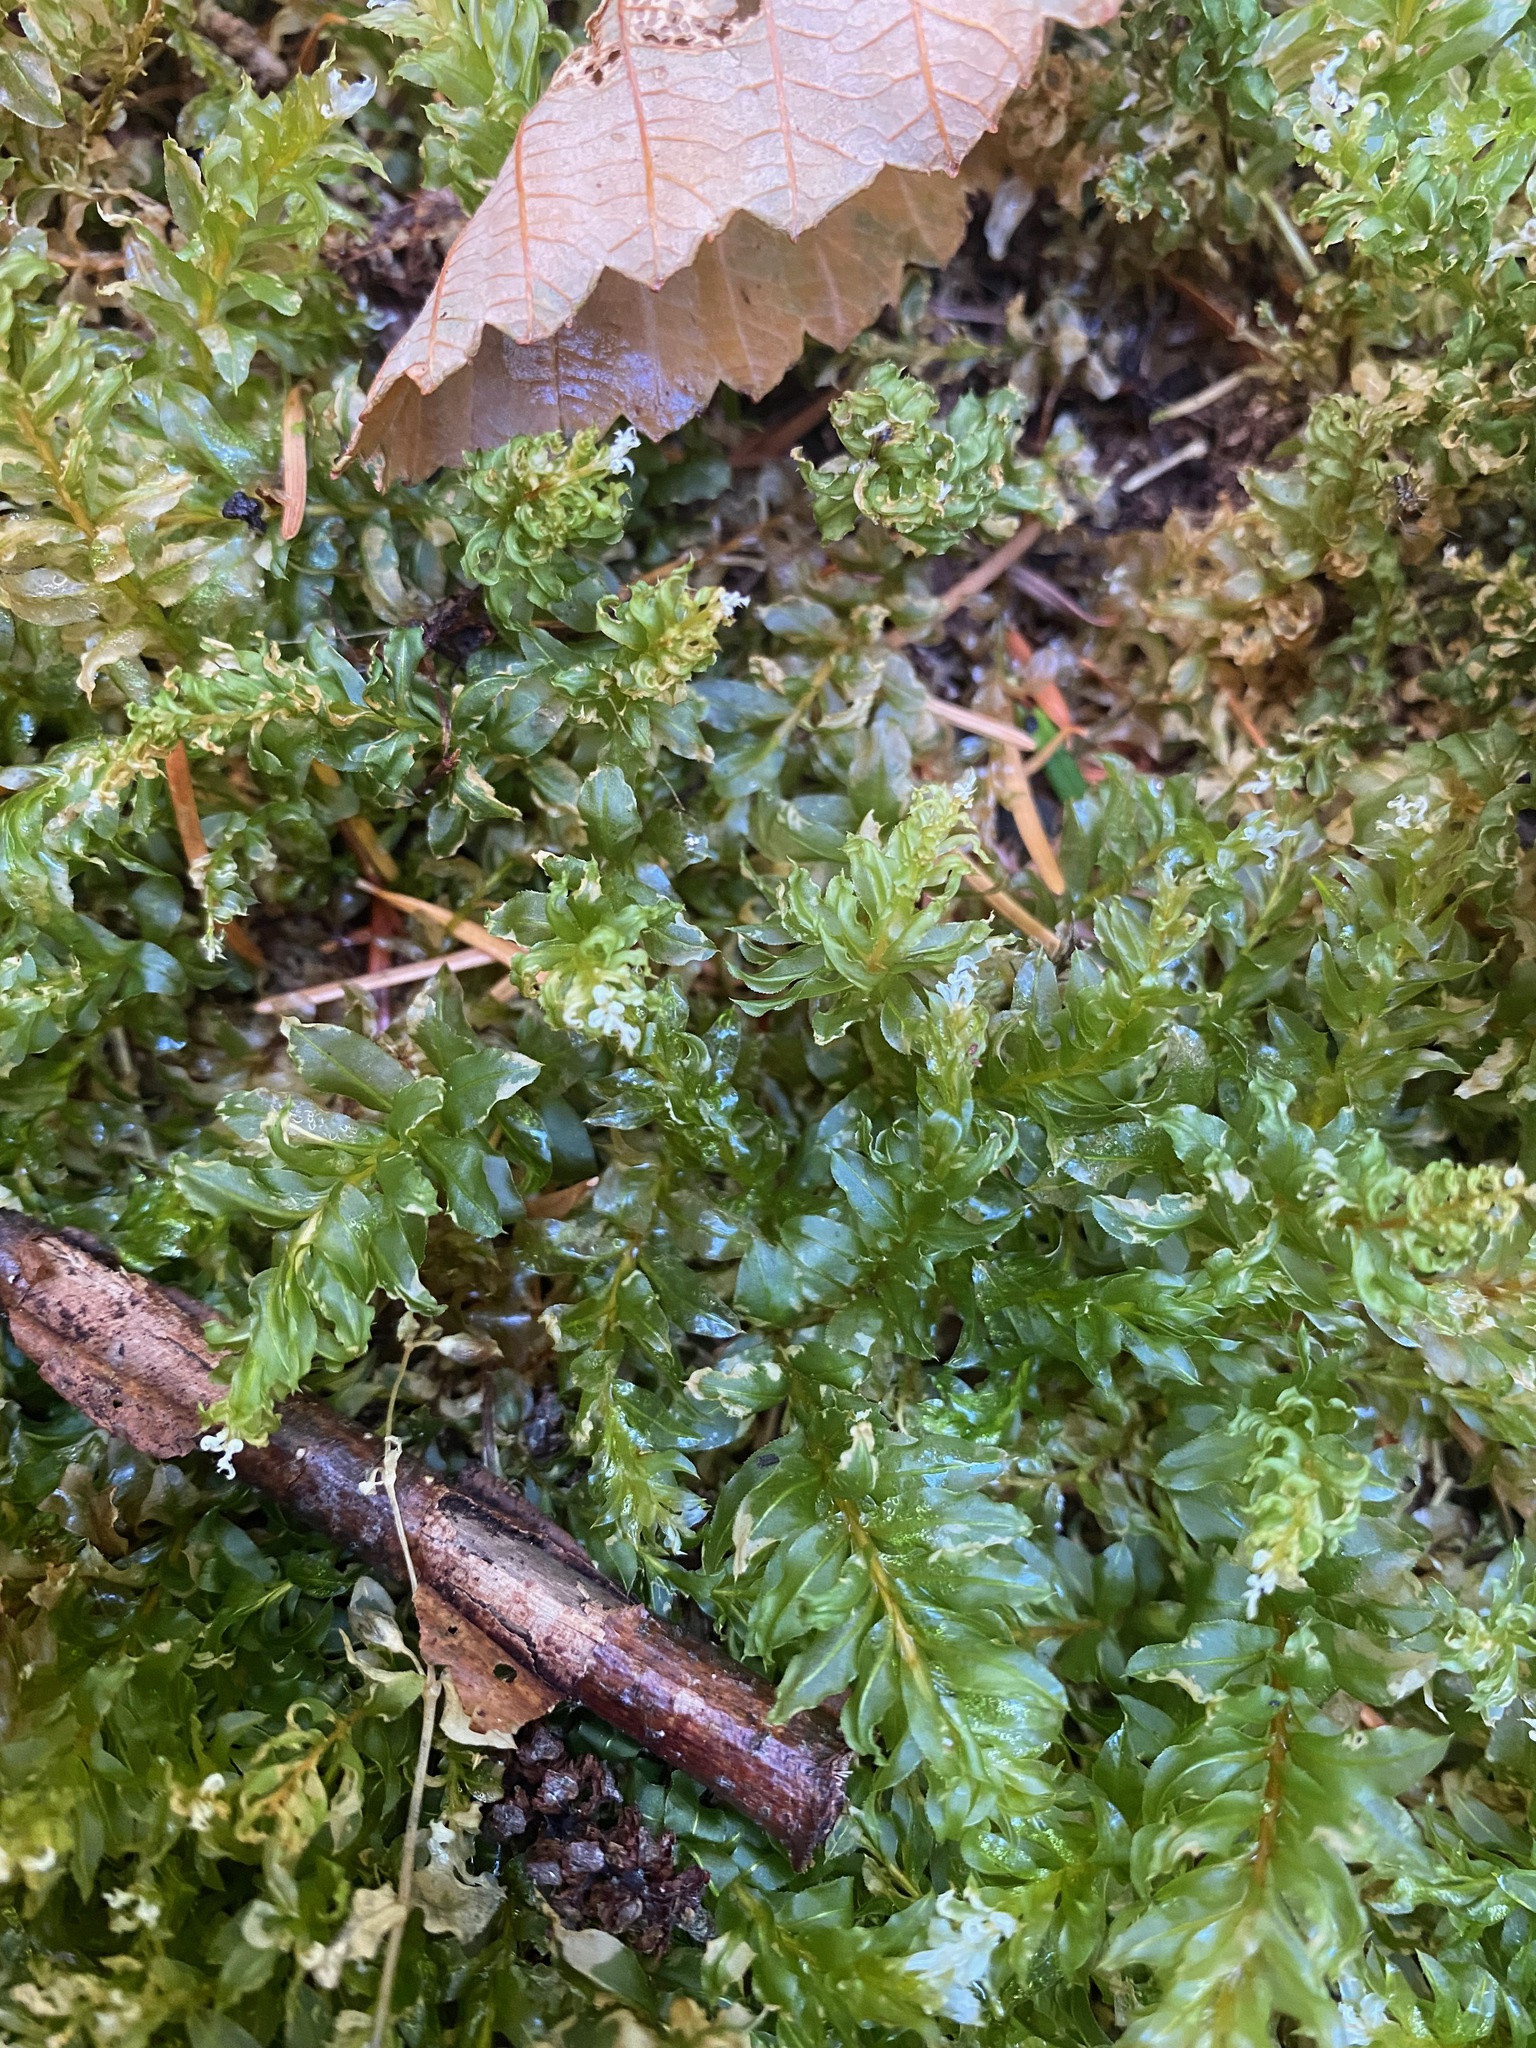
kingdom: Plantae
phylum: Bryophyta
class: Bryopsida
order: Bryales
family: Mniaceae
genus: Plagiomnium
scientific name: Plagiomnium insigne
